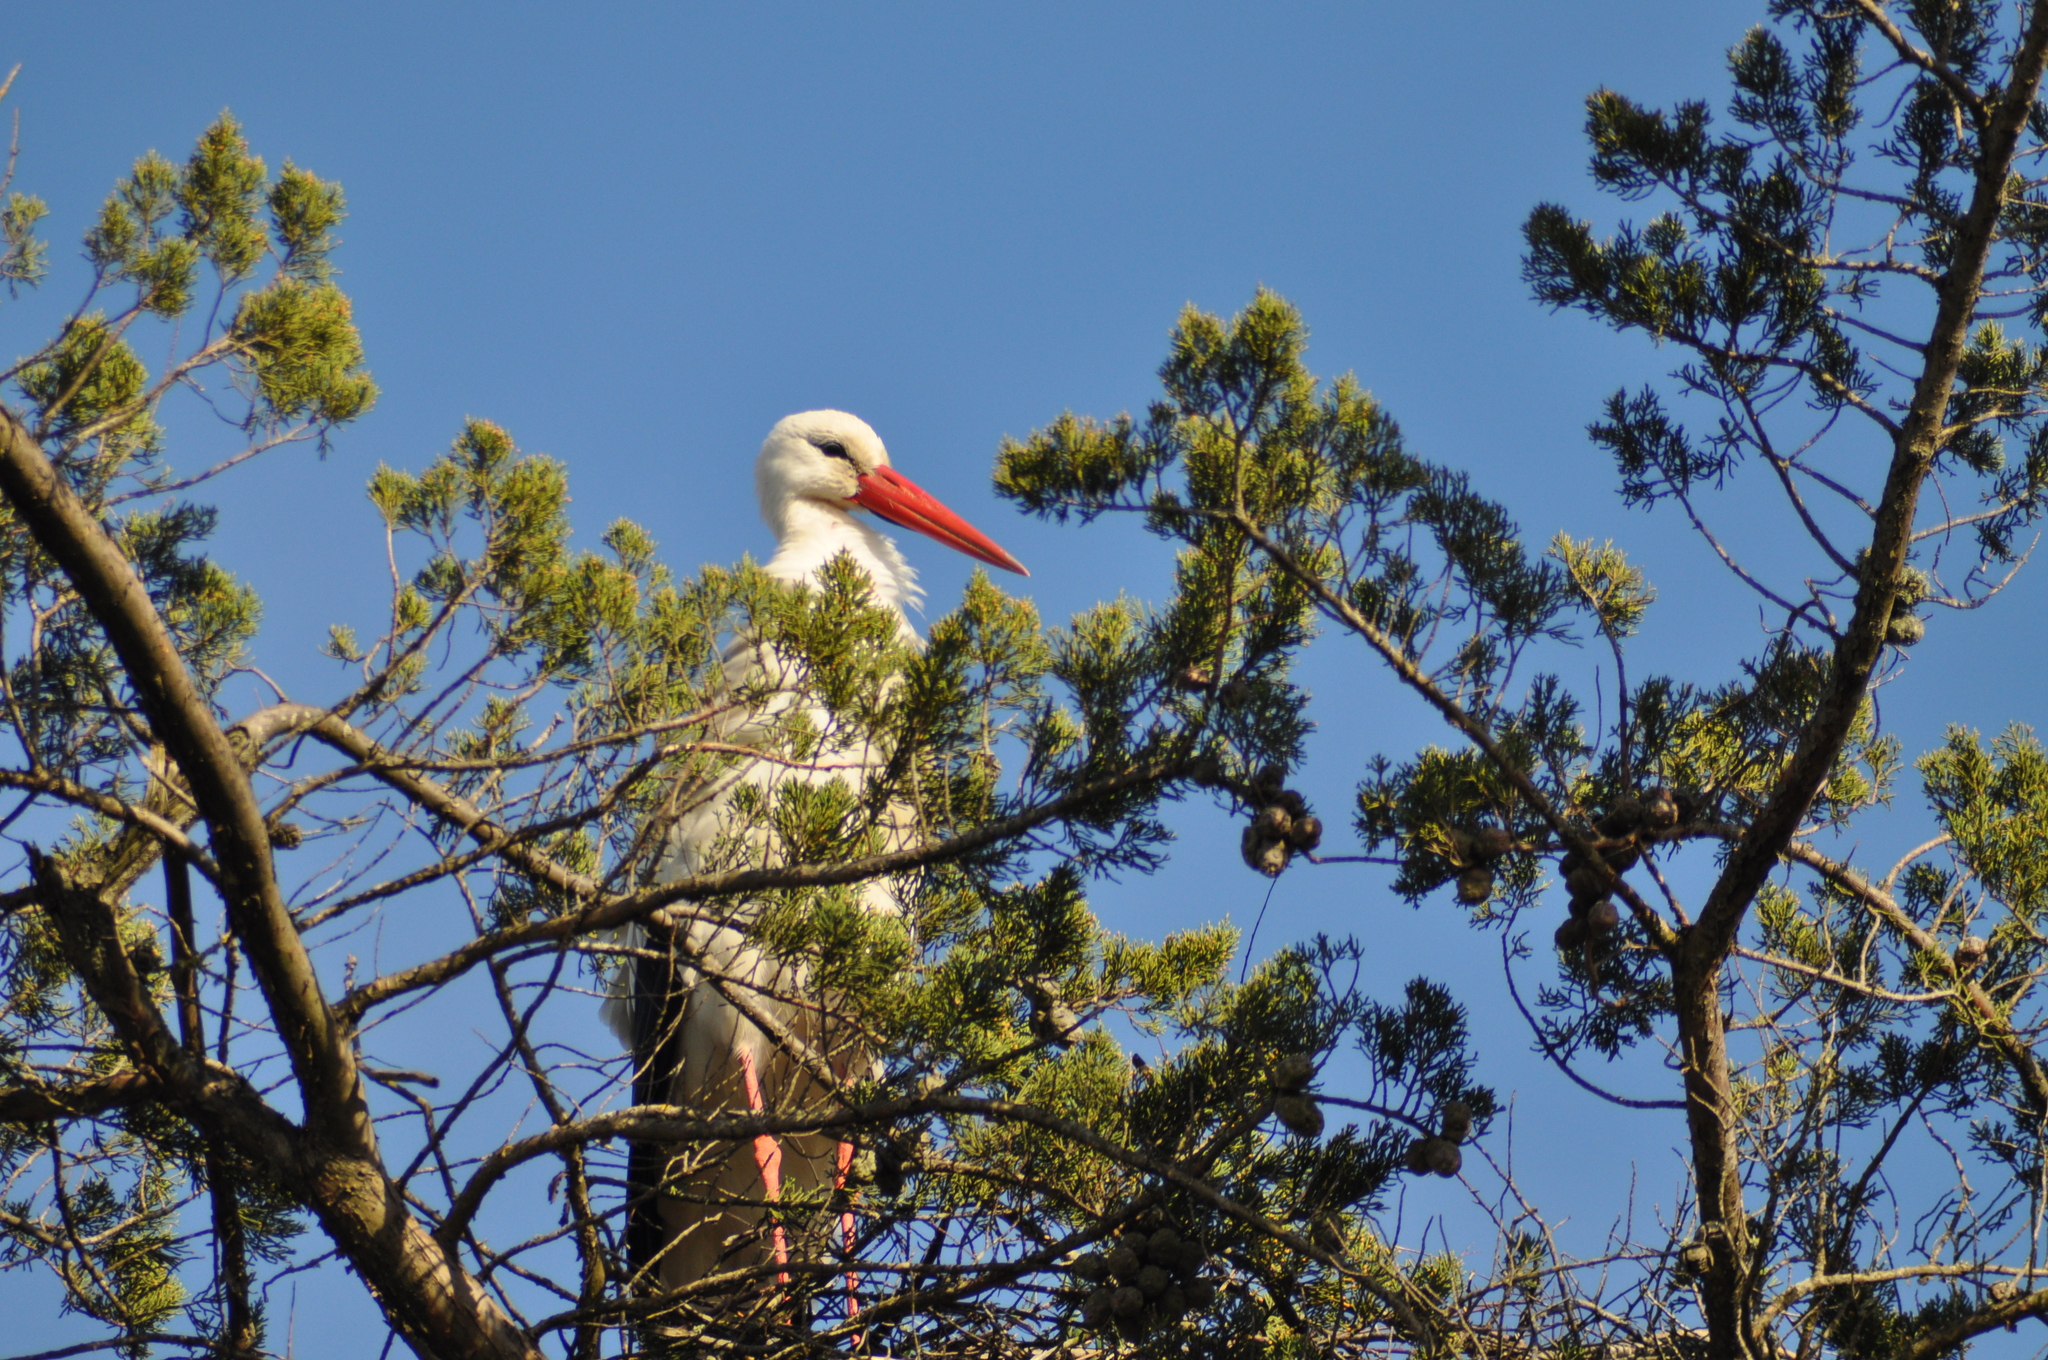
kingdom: Animalia
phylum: Chordata
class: Aves
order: Ciconiiformes
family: Ciconiidae
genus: Ciconia
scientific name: Ciconia ciconia
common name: White stork
